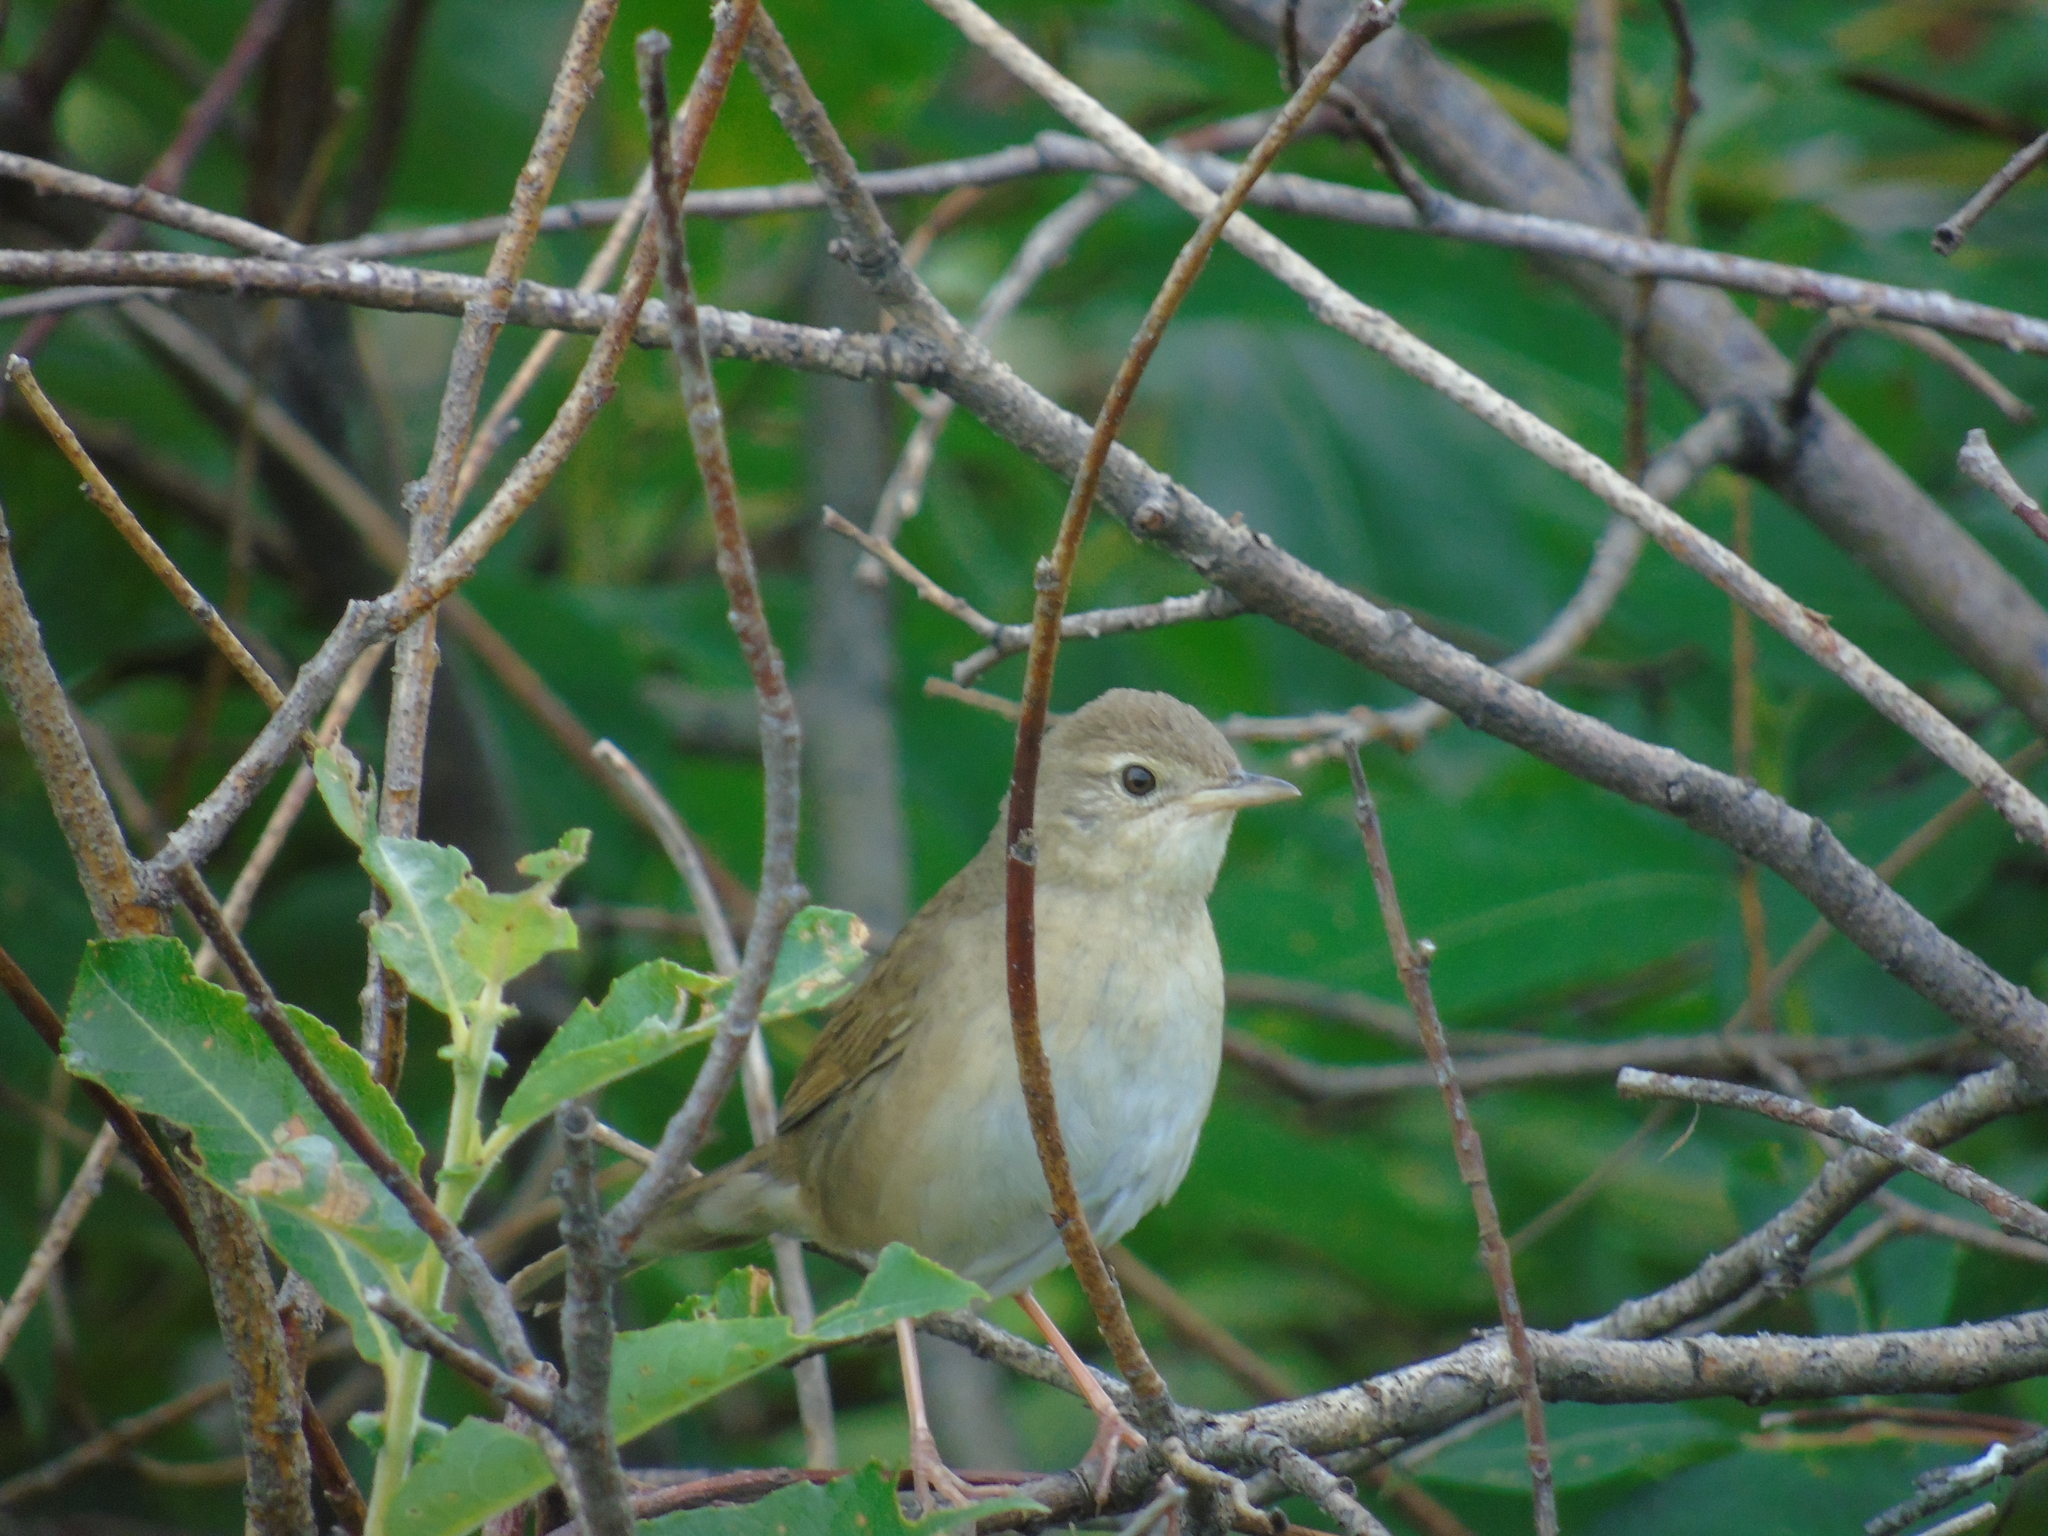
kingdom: Animalia
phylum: Chordata
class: Aves
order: Passeriformes
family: Locustellidae
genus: Locustella
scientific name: Locustella tacsanowskia
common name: Chinese bush warbler
